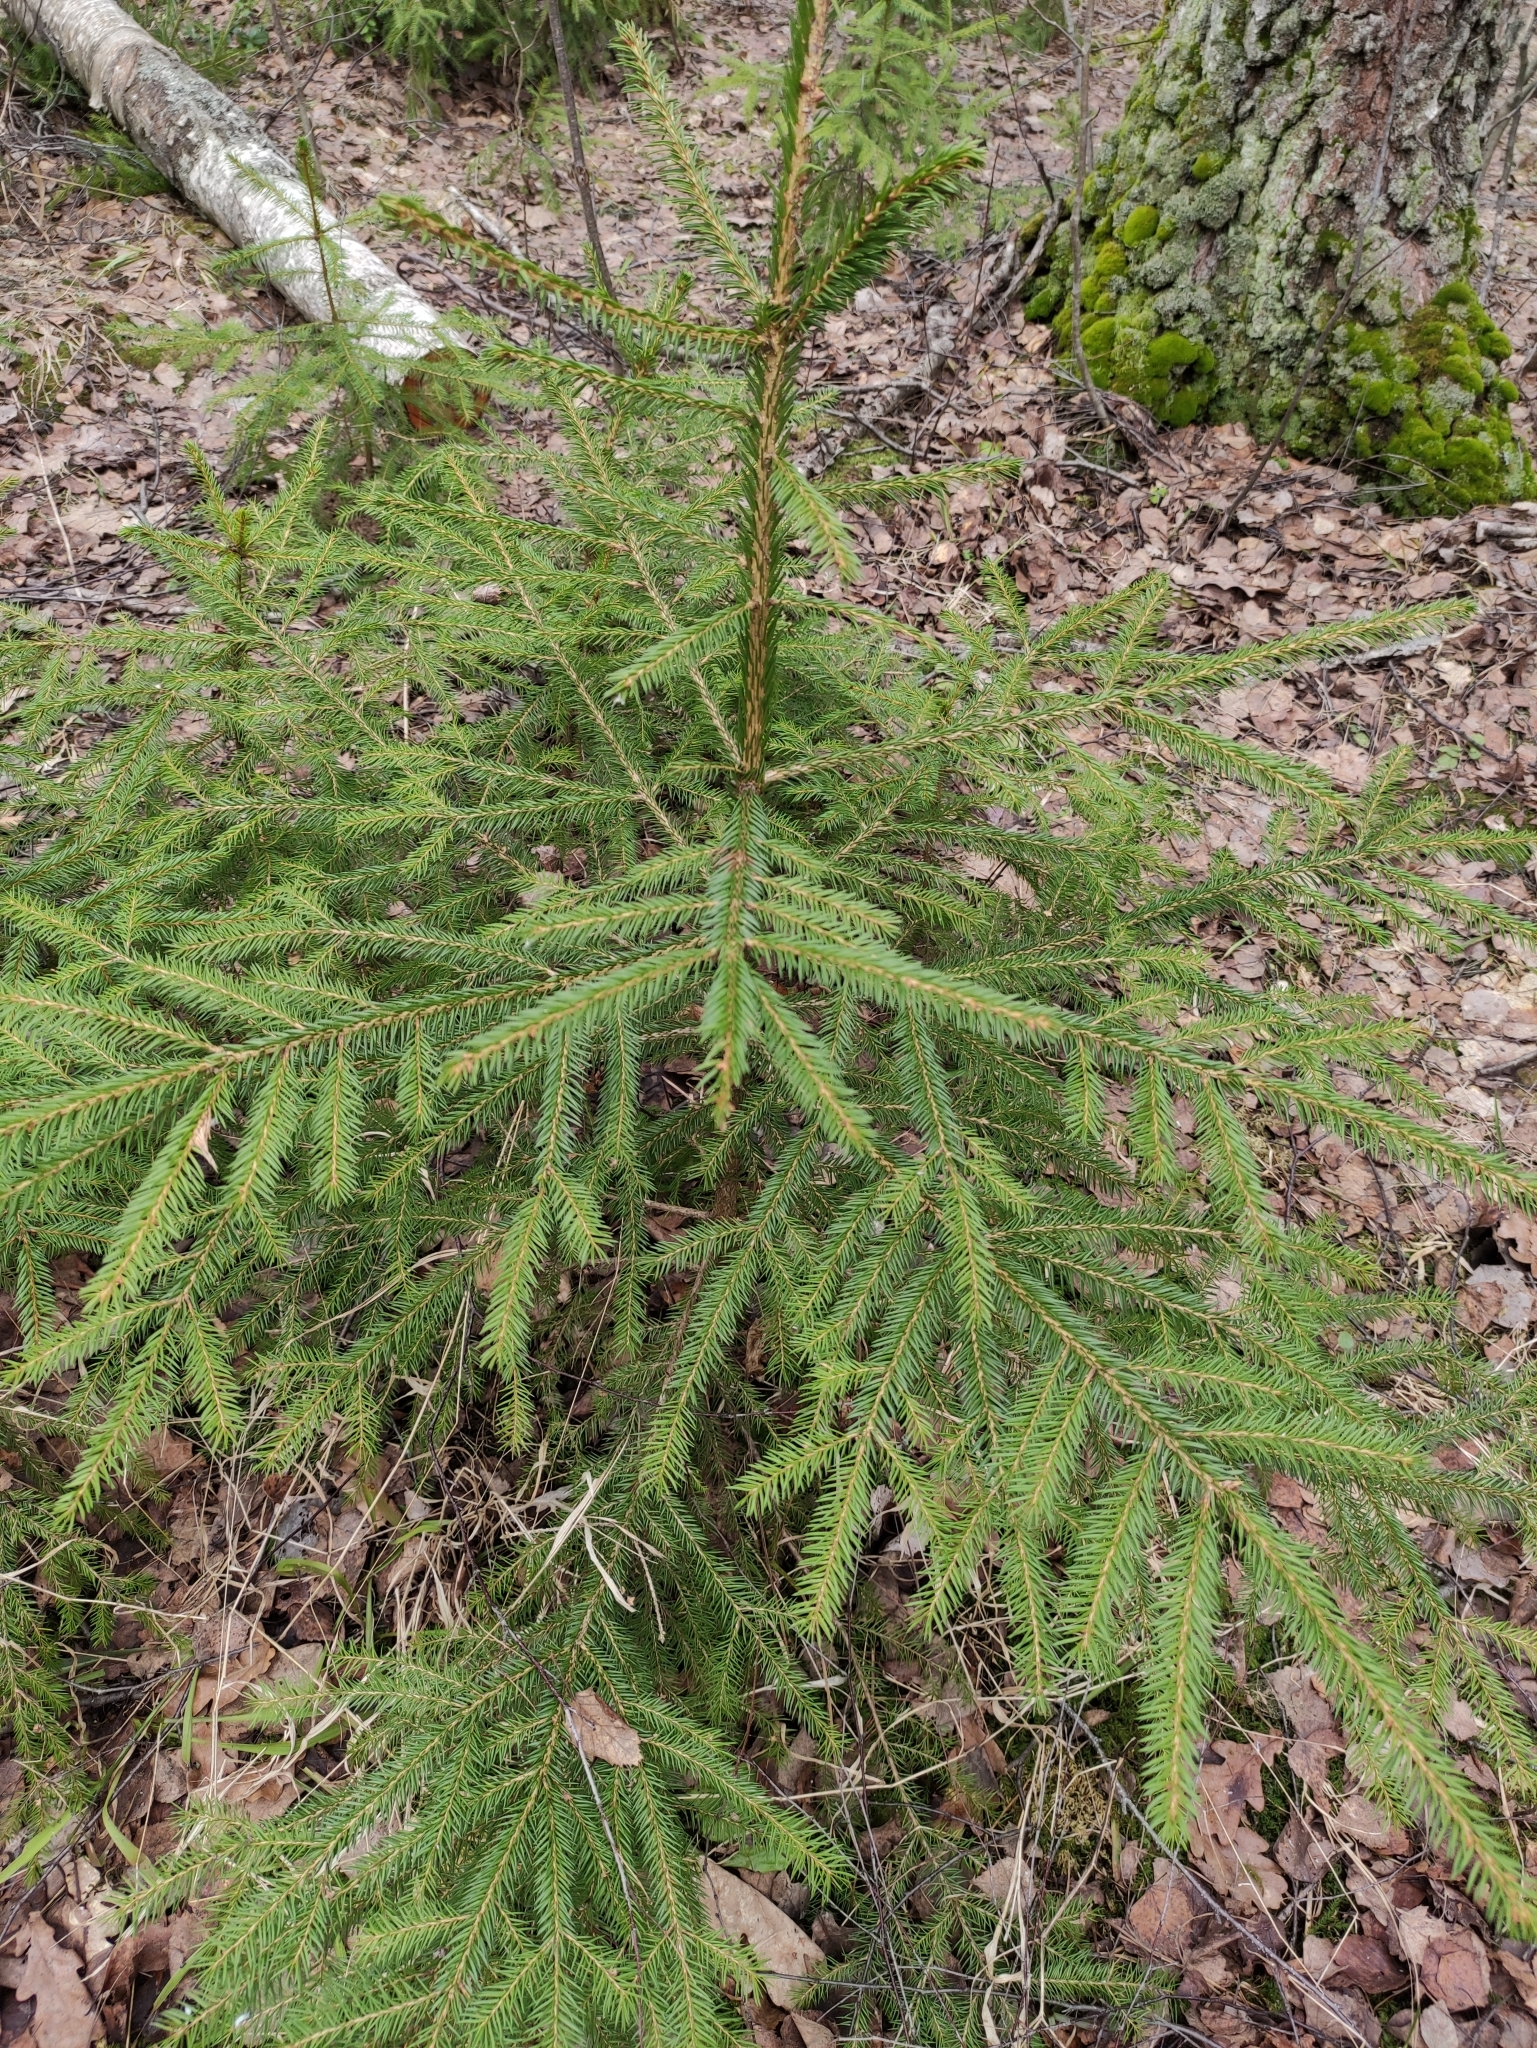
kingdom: Plantae
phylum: Tracheophyta
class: Pinopsida
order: Pinales
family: Pinaceae
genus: Picea
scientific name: Picea abies
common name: Norway spruce
